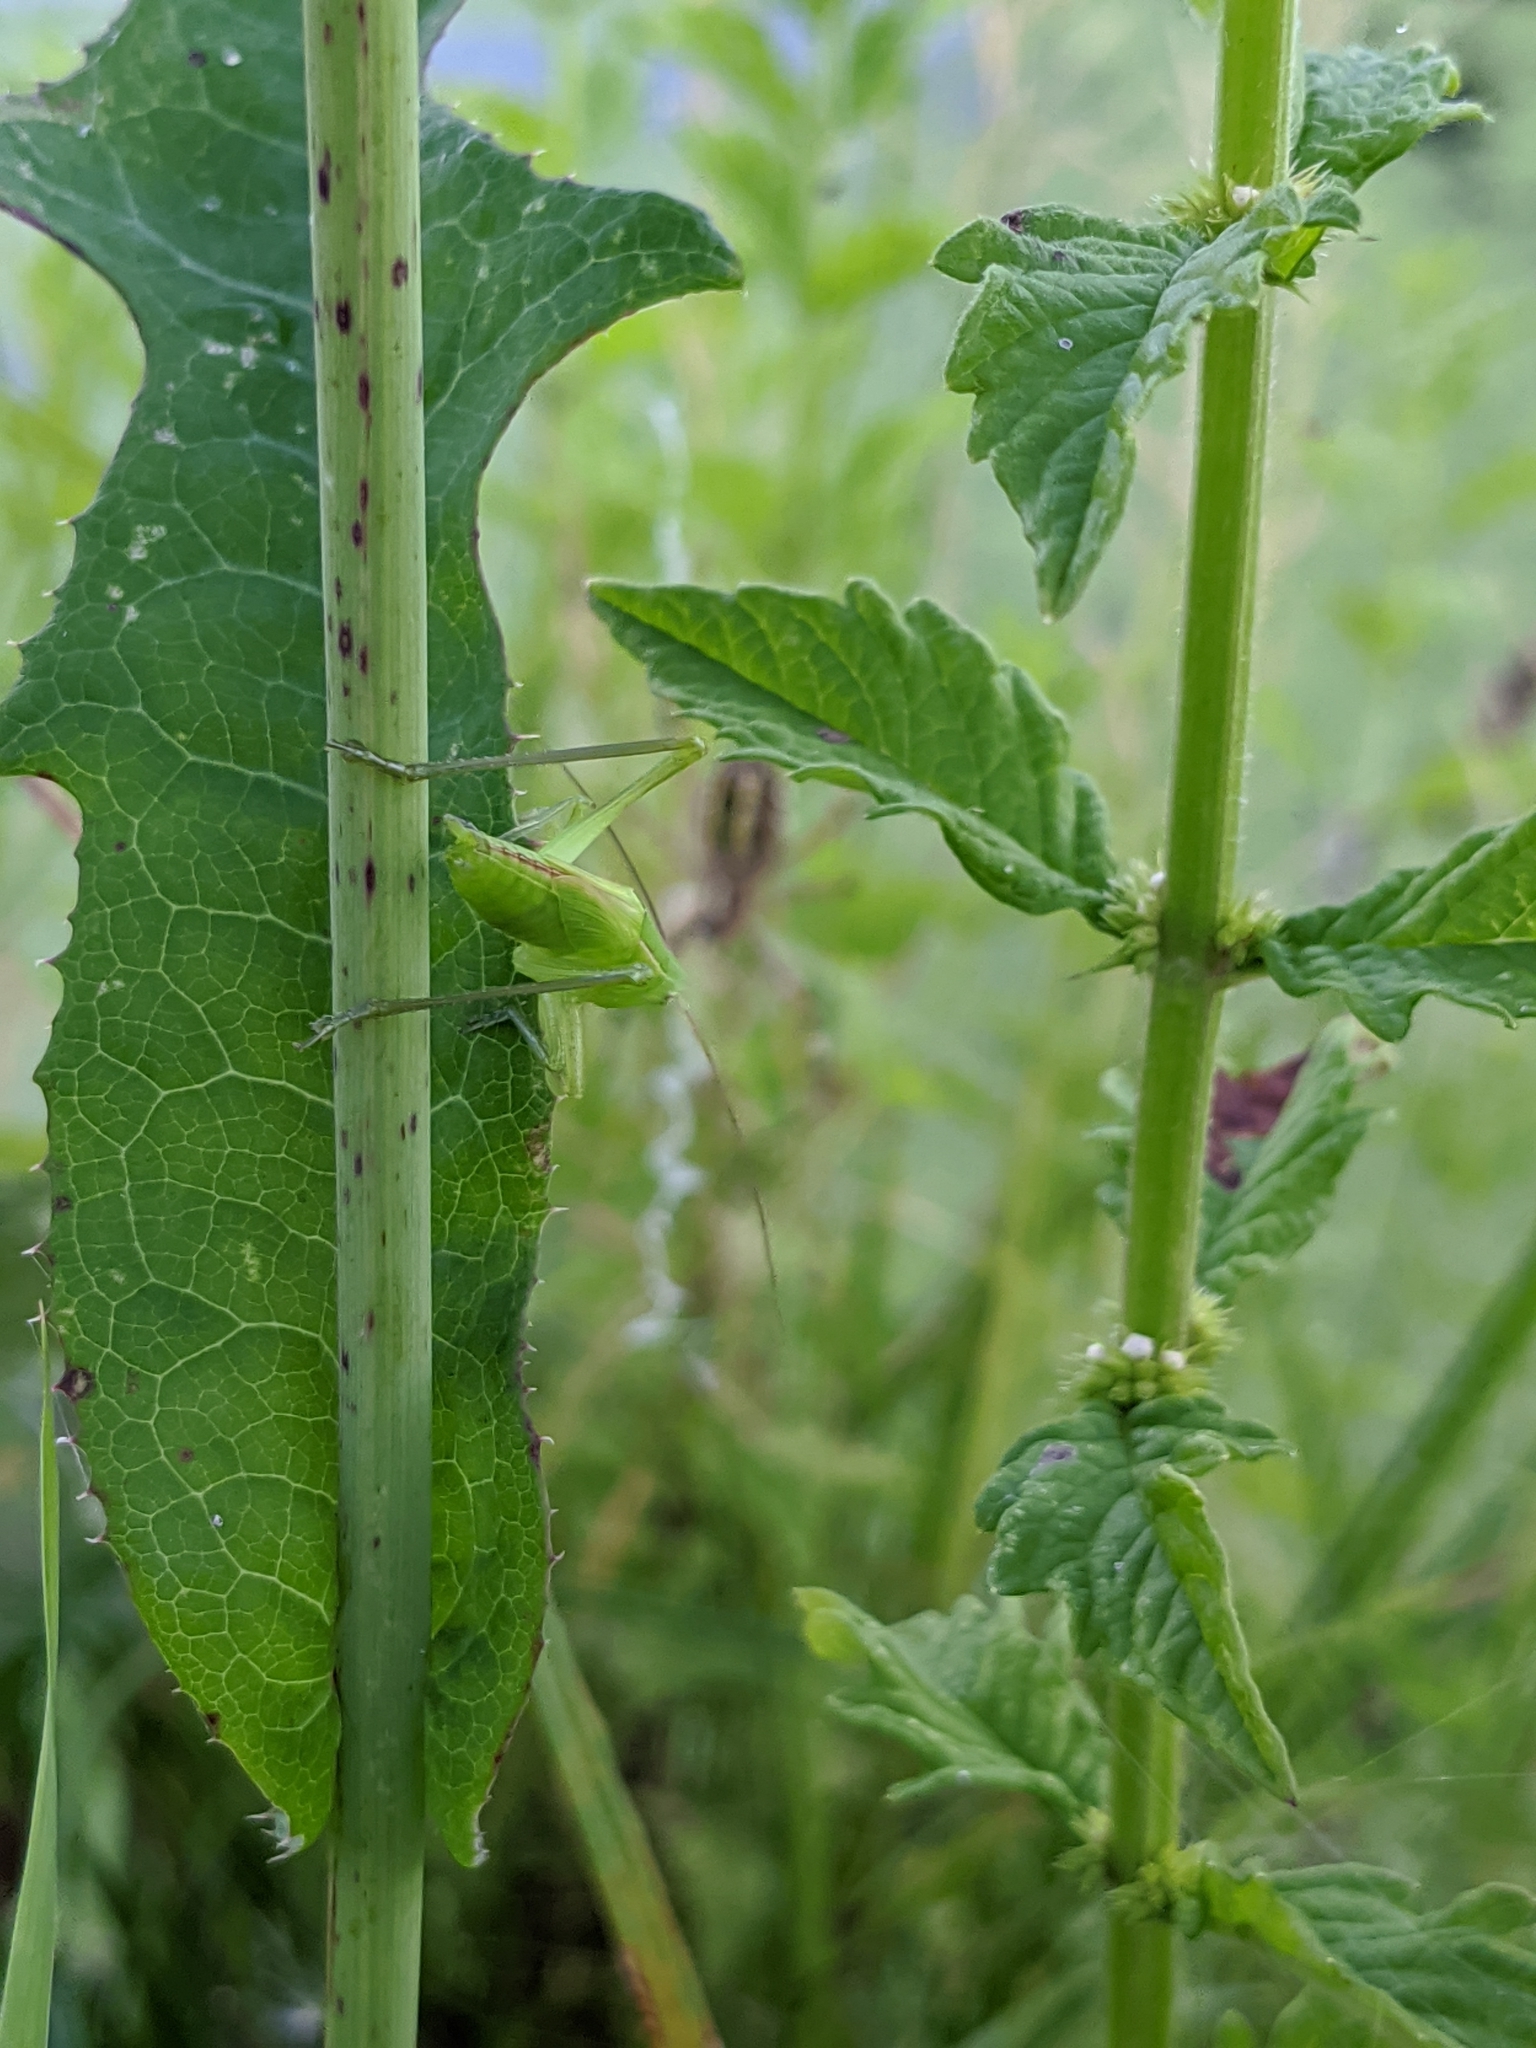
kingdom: Animalia
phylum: Arthropoda
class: Insecta
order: Orthoptera
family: Tettigoniidae
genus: Ruspolia
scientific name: Ruspolia nitidula
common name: Large conehead
